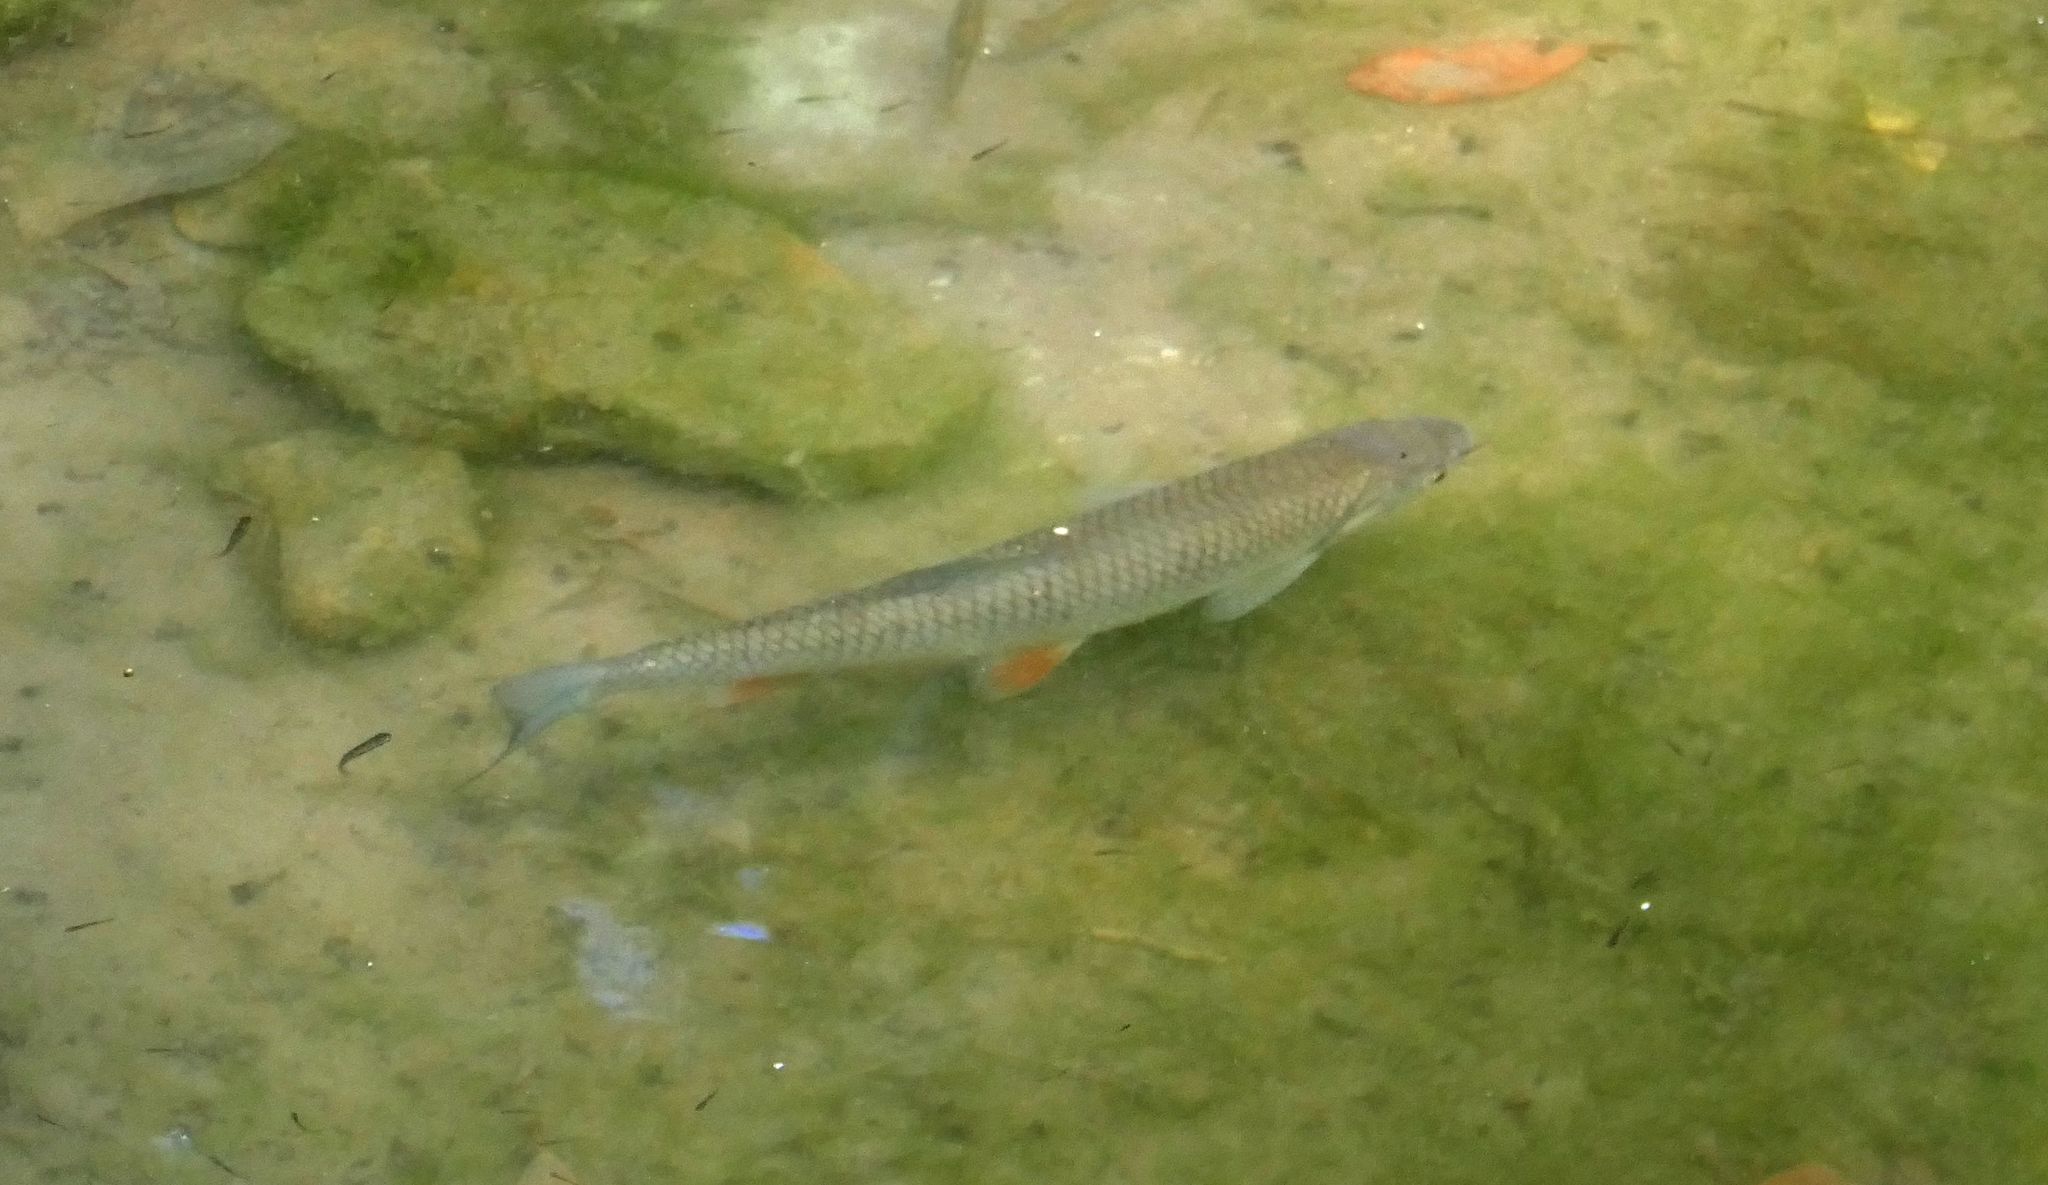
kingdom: Animalia
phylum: Chordata
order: Cypriniformes
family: Cyprinidae
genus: Squalius
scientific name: Squalius cephalus
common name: Chub
